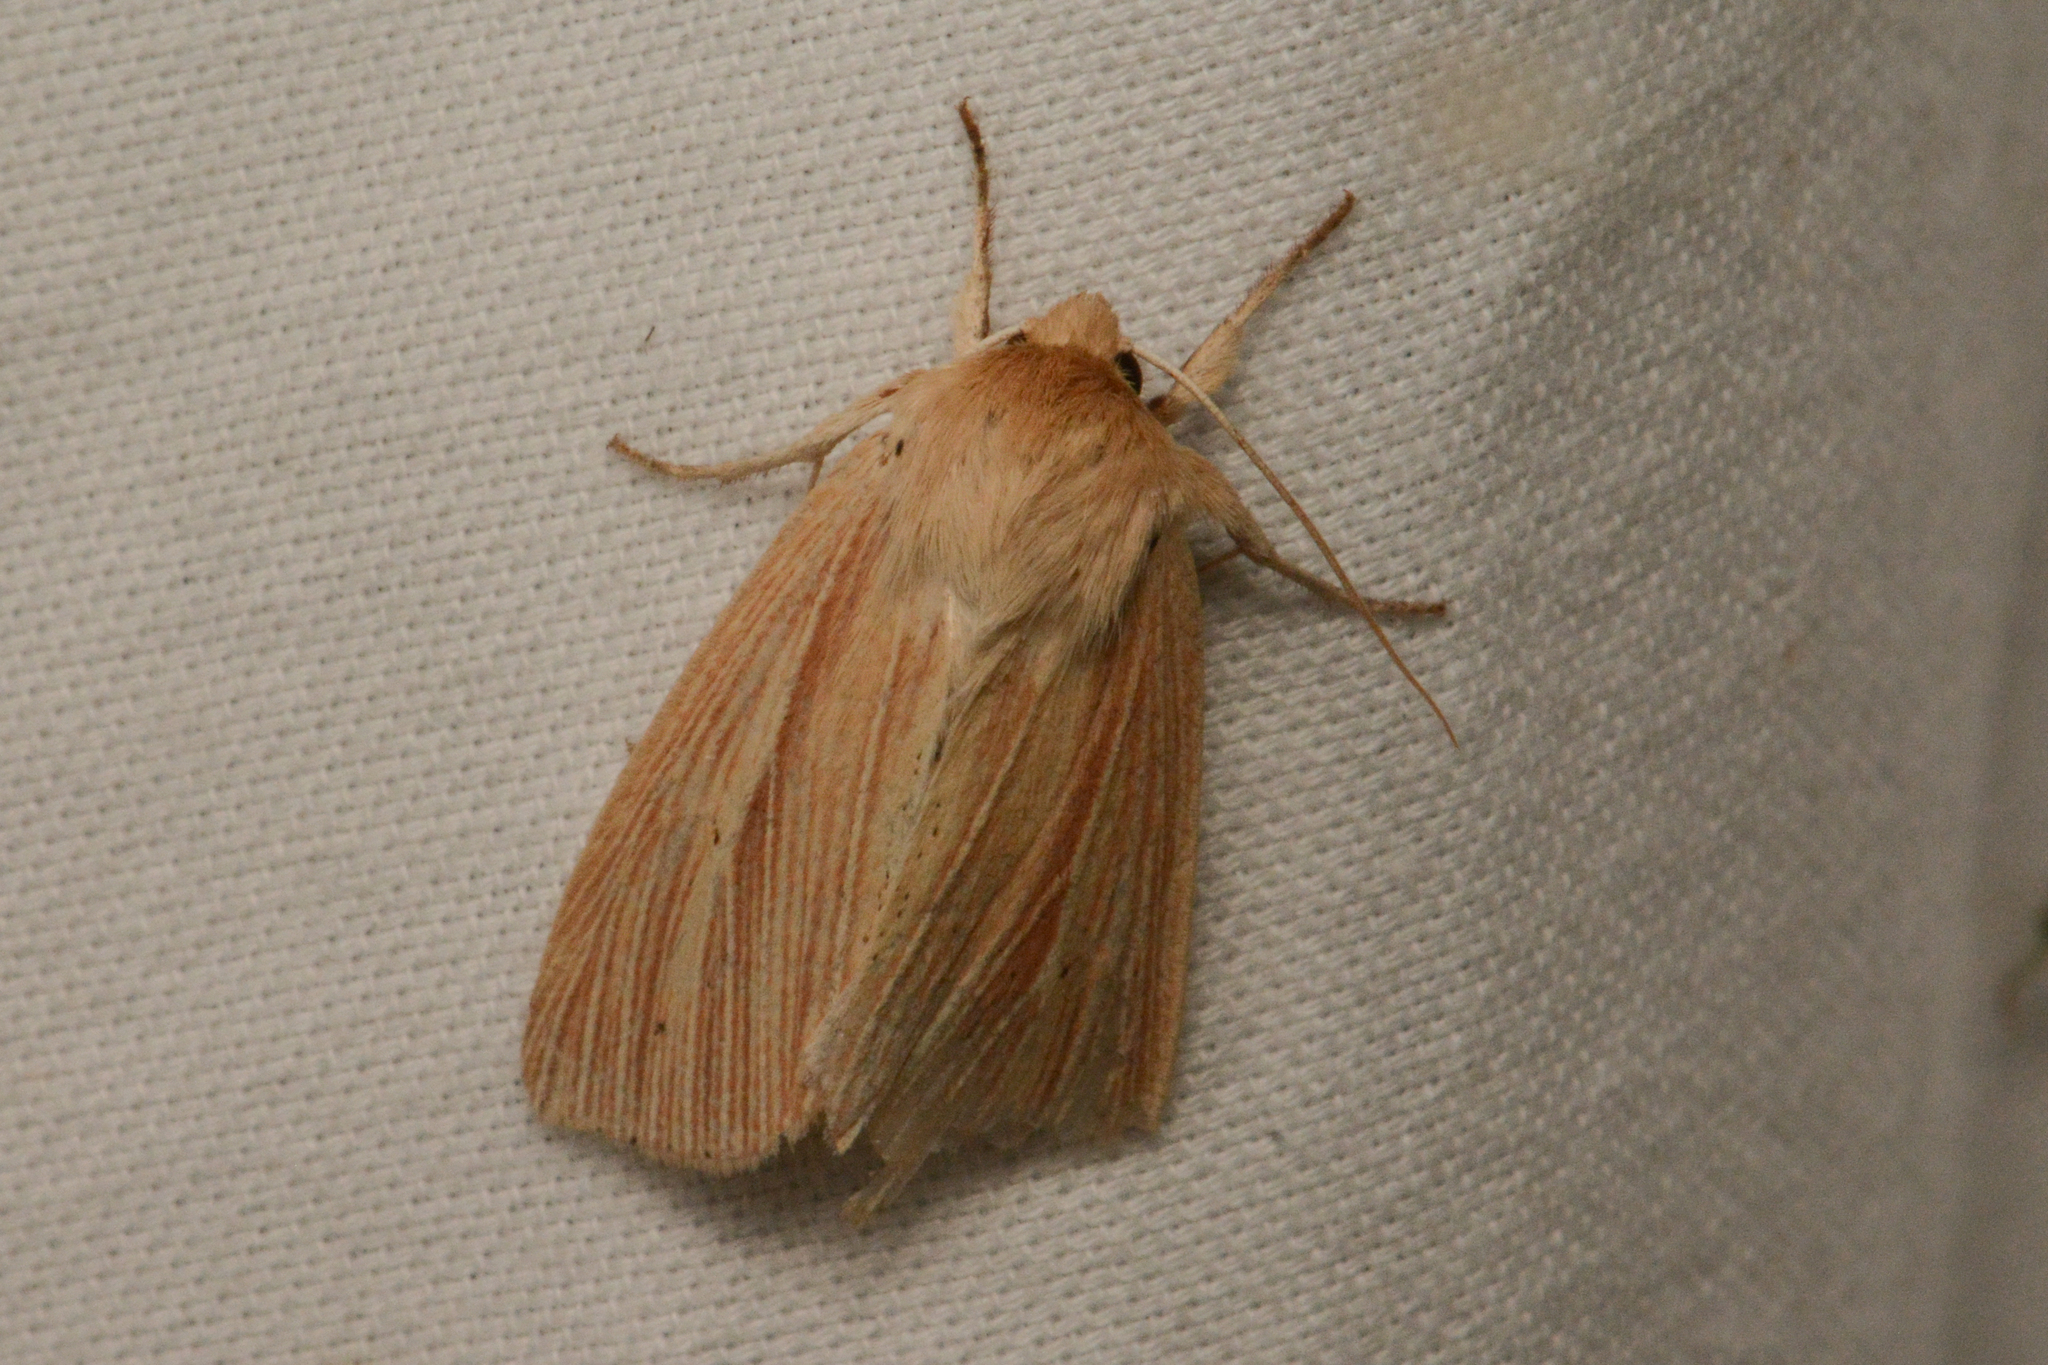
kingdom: Animalia
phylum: Arthropoda
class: Insecta
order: Lepidoptera
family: Noctuidae
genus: Mythimna
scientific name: Mythimna oxygala
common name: Lesser wainscot
